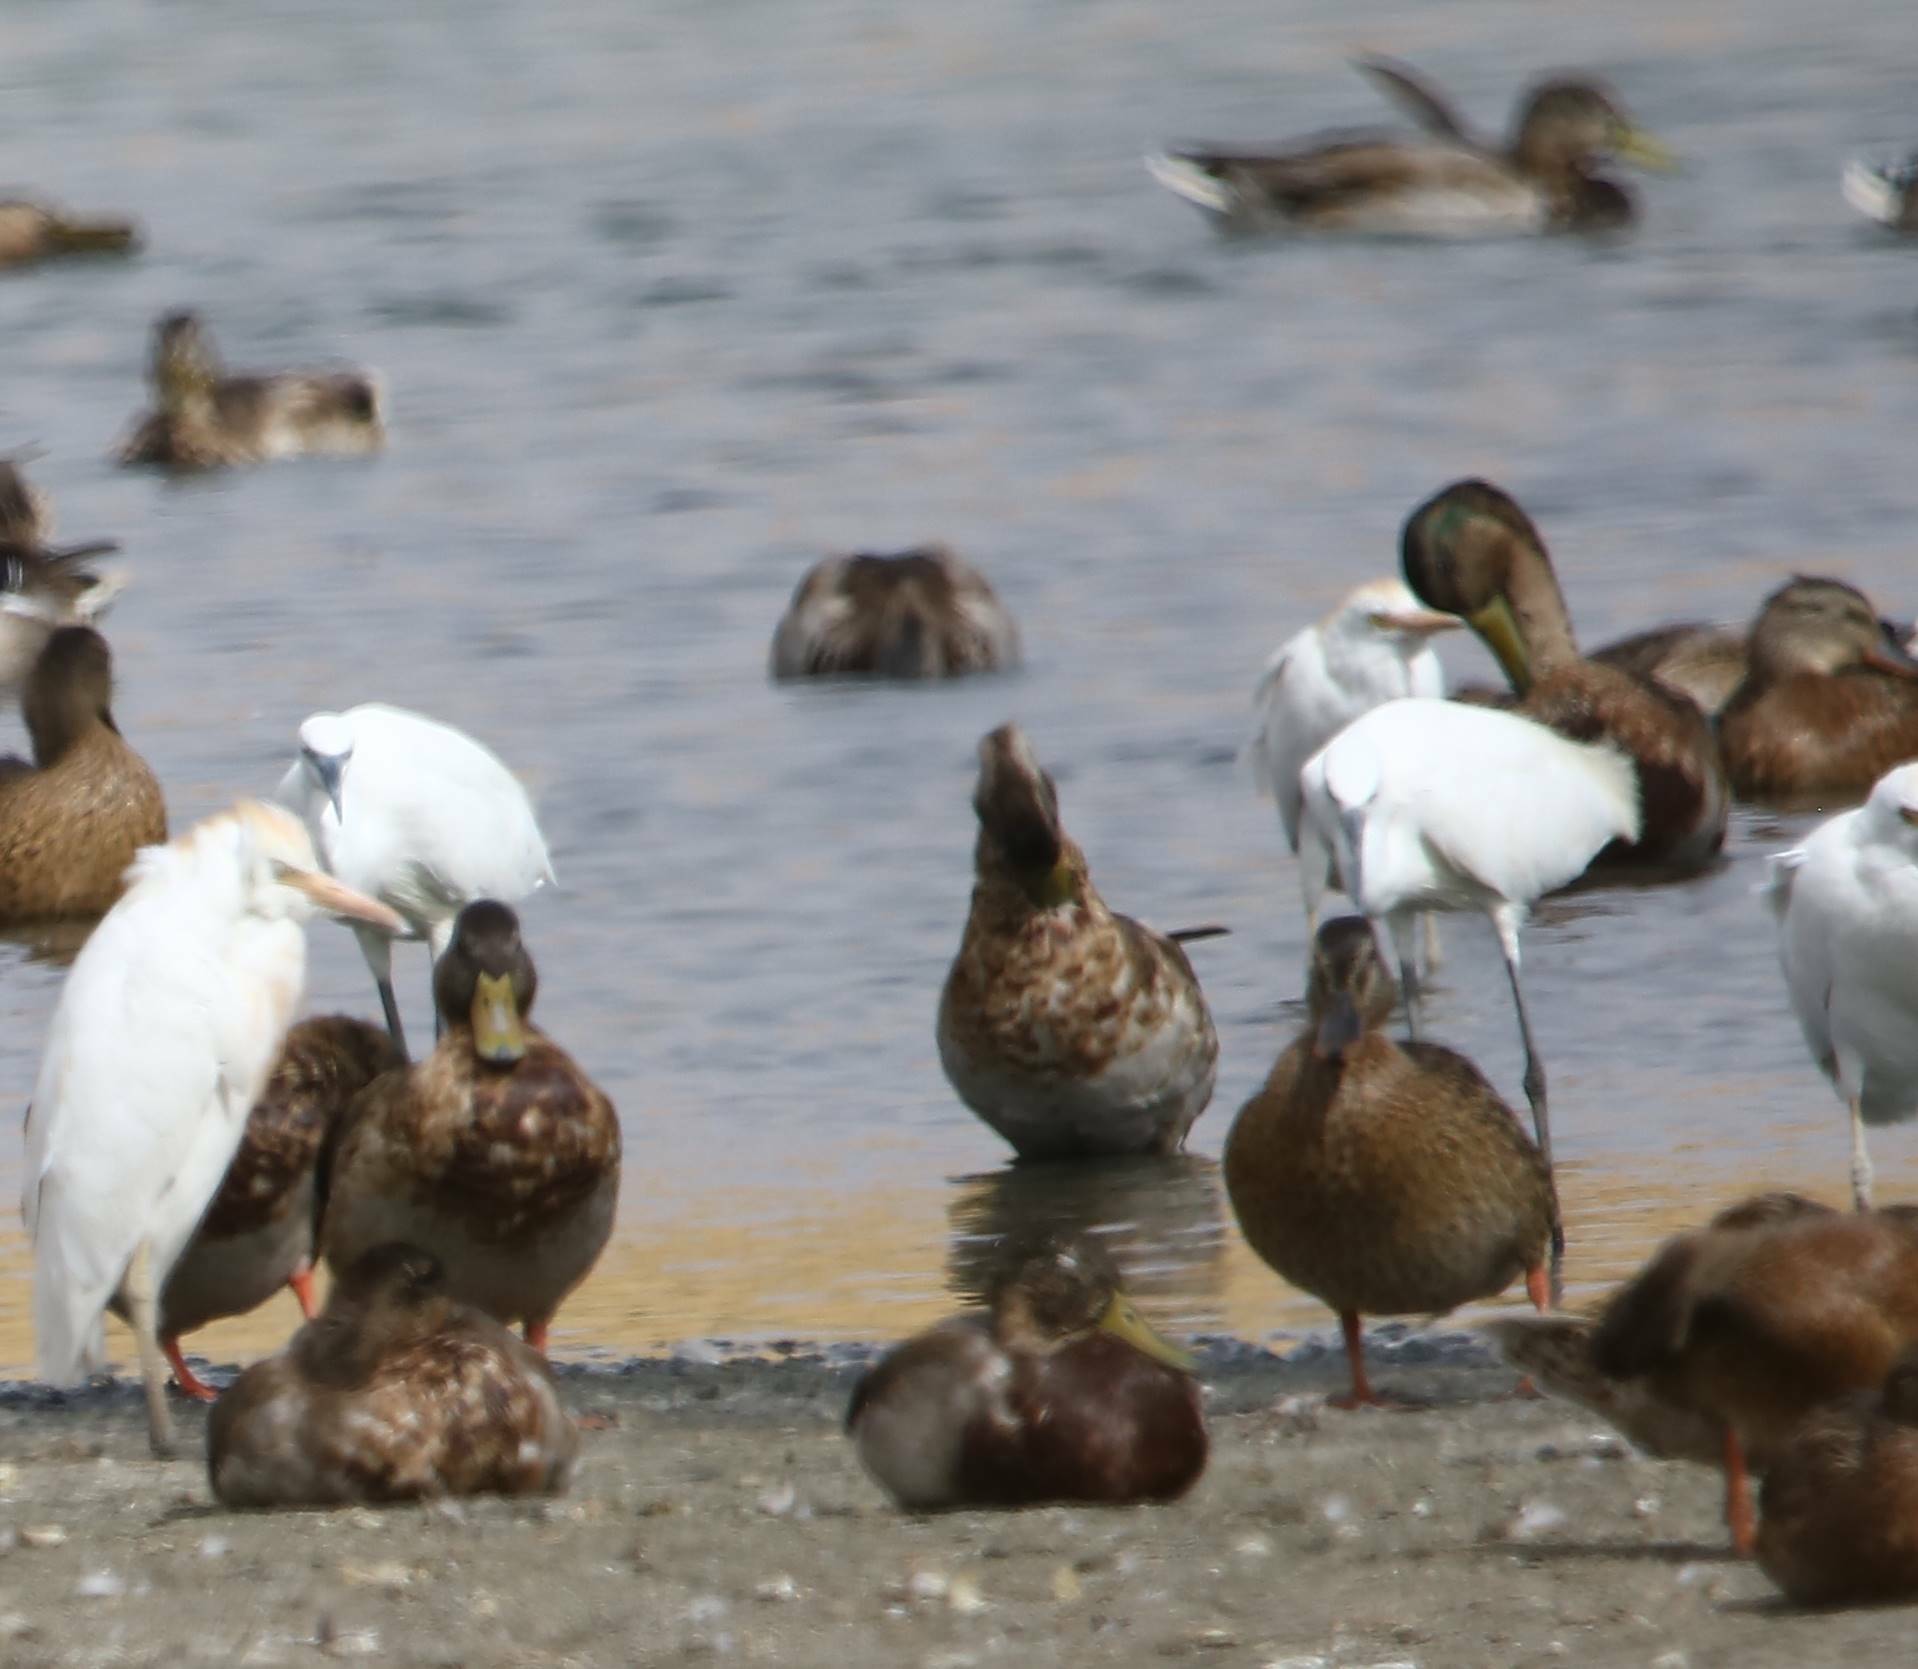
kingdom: Animalia
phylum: Chordata
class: Aves
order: Anseriformes
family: Anatidae
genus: Anas
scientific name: Anas platyrhynchos
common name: Mallard
